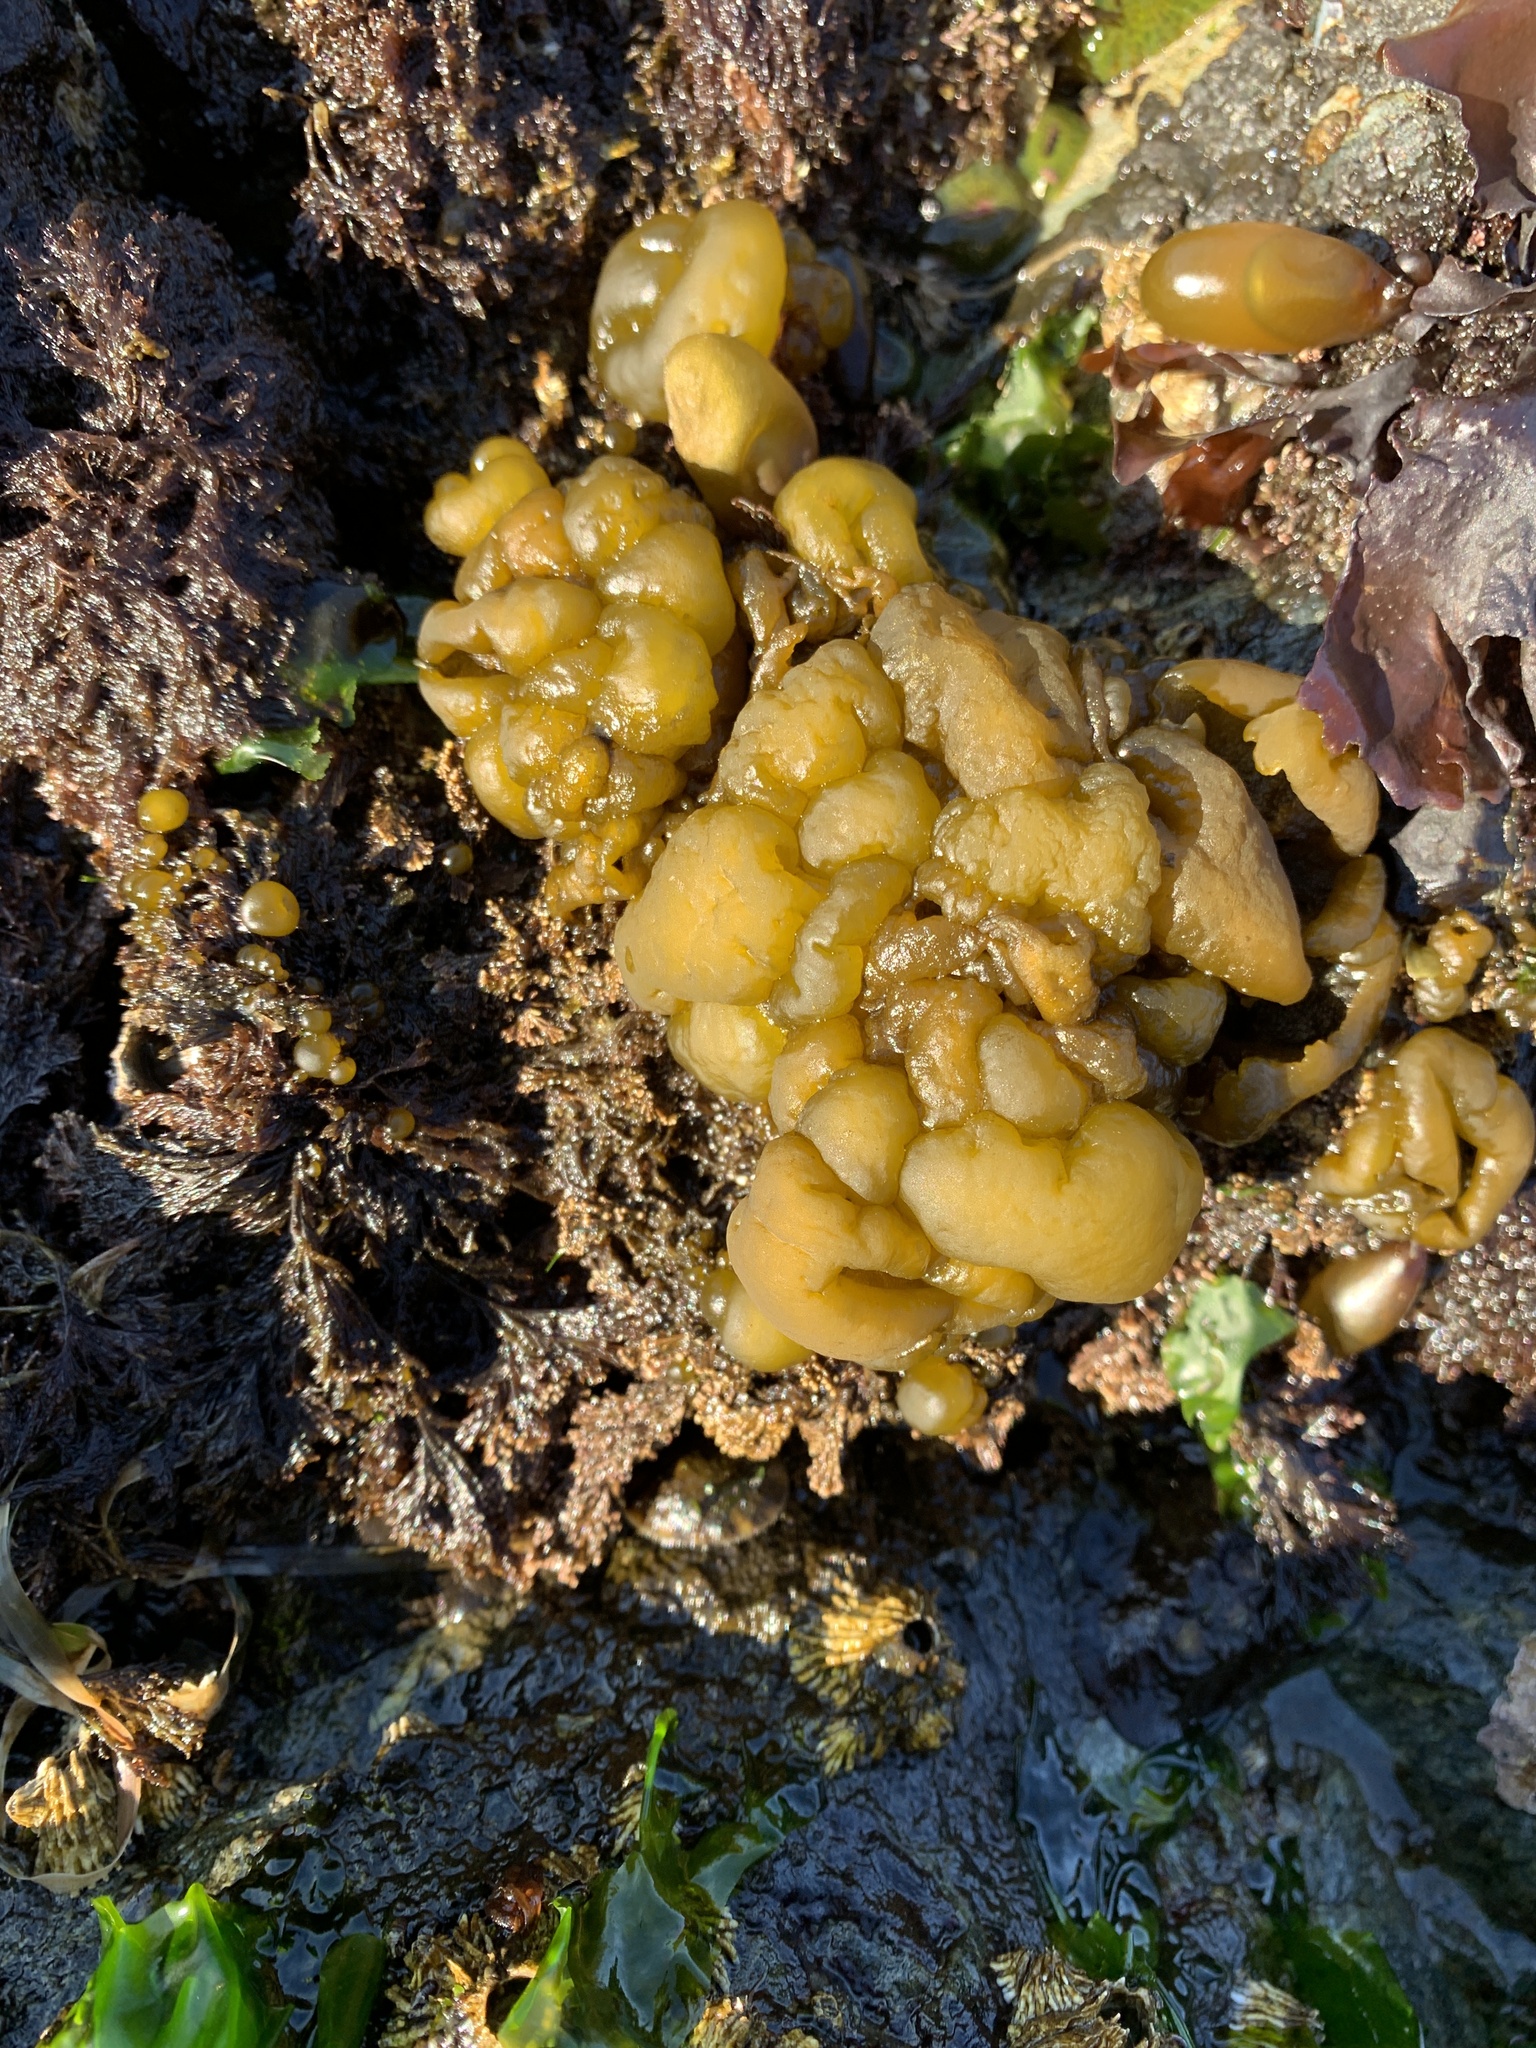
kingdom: Chromista
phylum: Ochrophyta
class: Phaeophyceae
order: Ectocarpales
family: Chordariaceae
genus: Leathesia
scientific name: Leathesia marina
